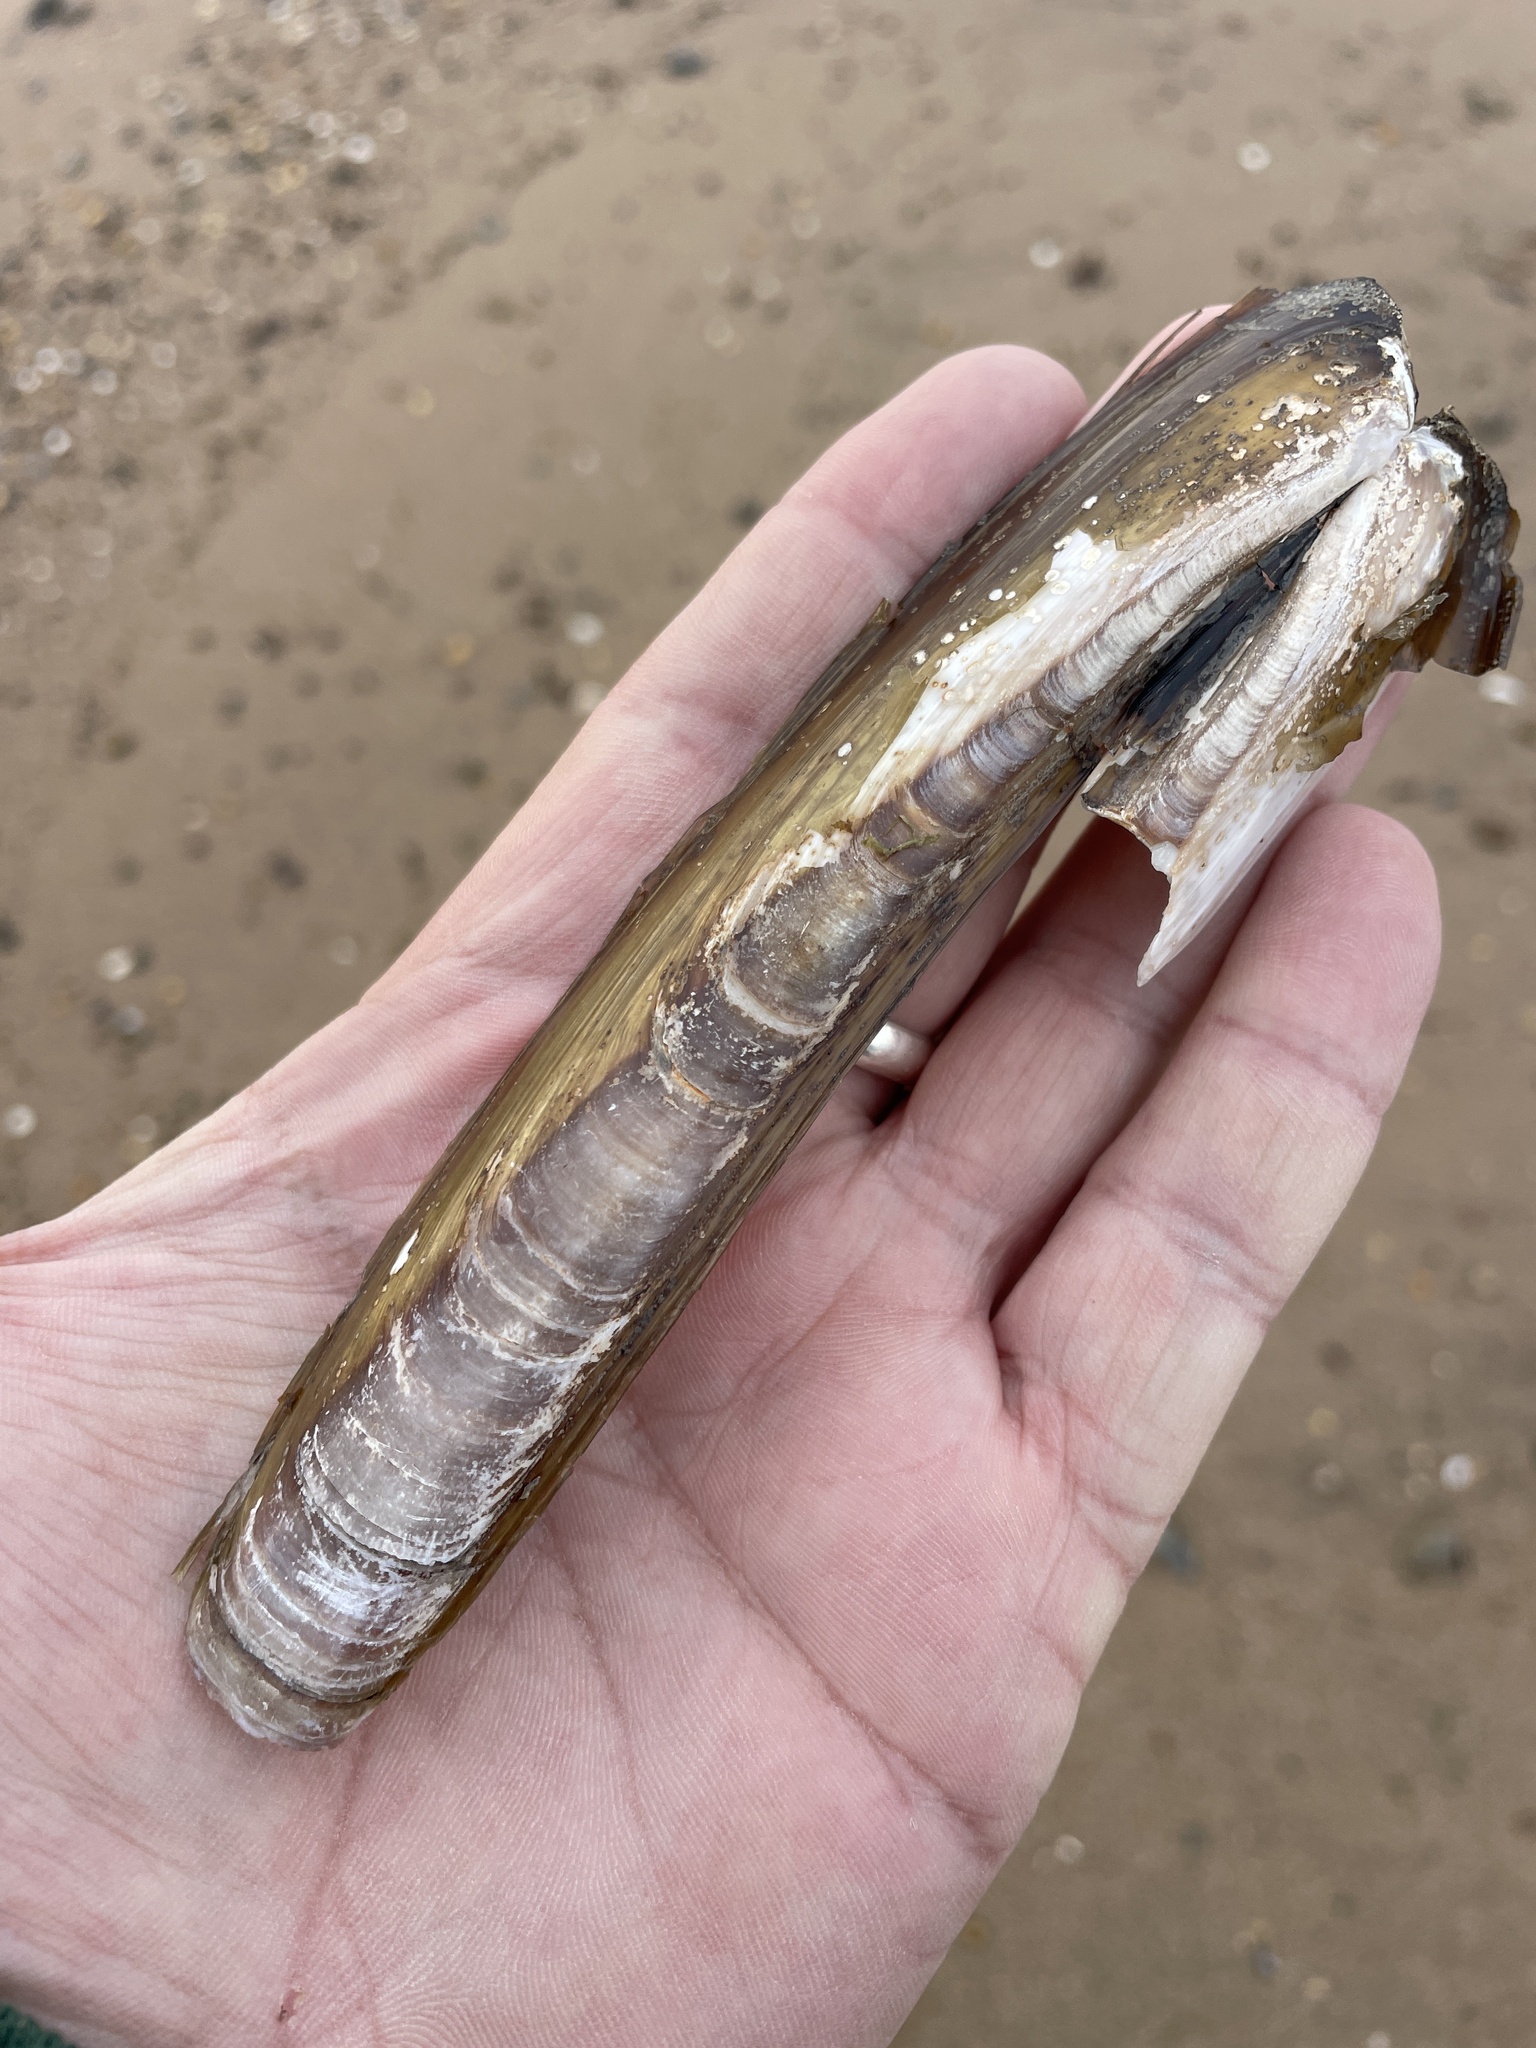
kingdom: Animalia
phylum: Mollusca
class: Bivalvia
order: Adapedonta
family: Pharidae
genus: Ensis
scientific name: Ensis leei
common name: American jack knife clam
